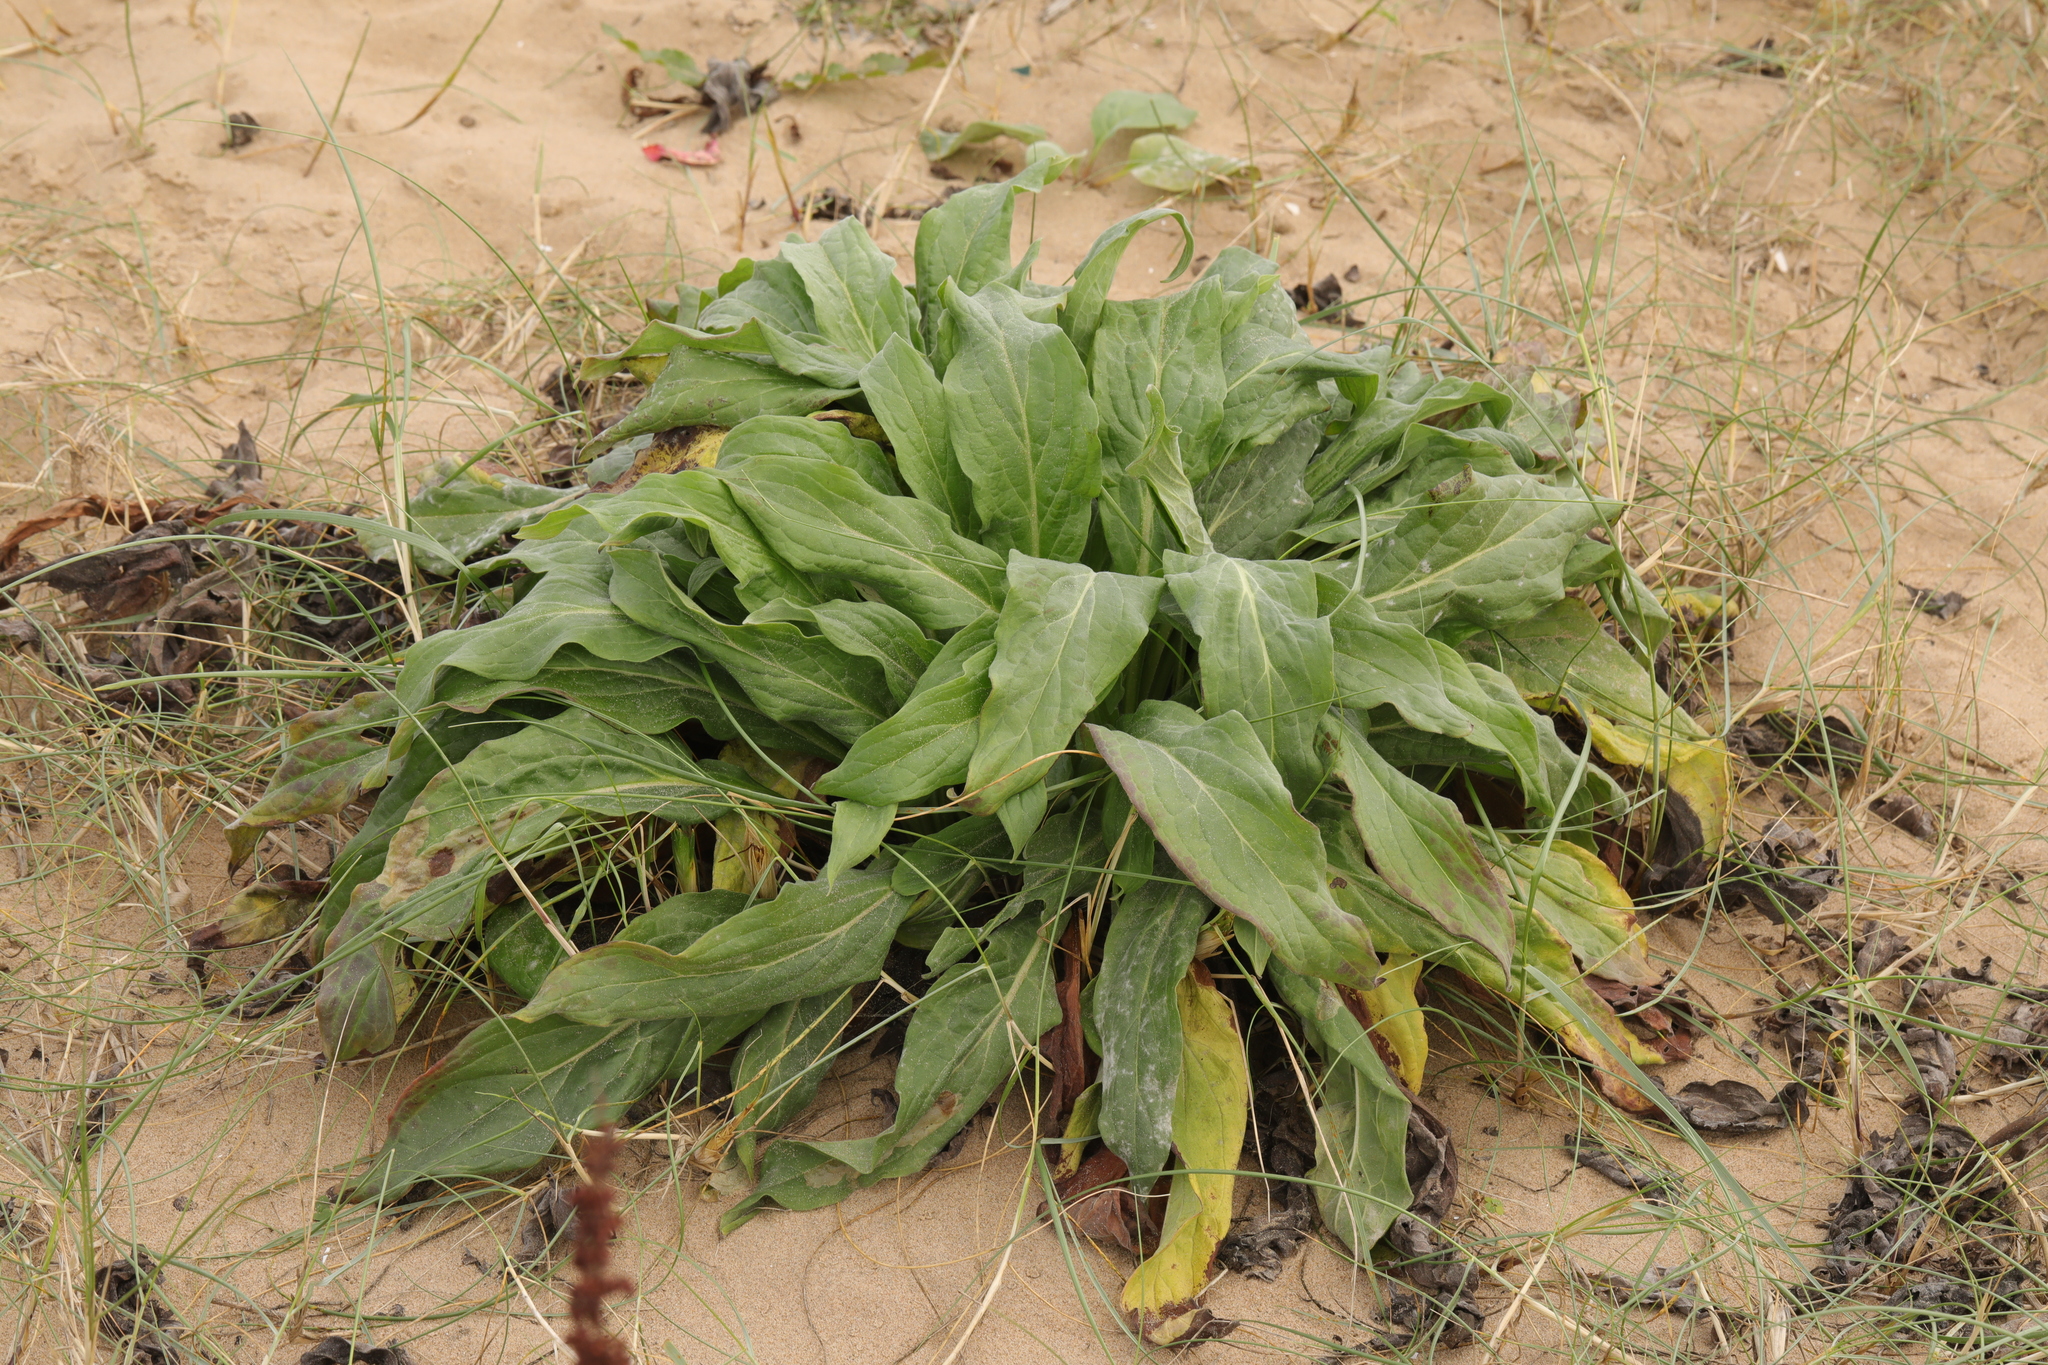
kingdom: Plantae
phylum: Tracheophyta
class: Magnoliopsida
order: Boraginales
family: Boraginaceae
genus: Cynoglossum
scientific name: Cynoglossum officinale
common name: Hound's-tongue
